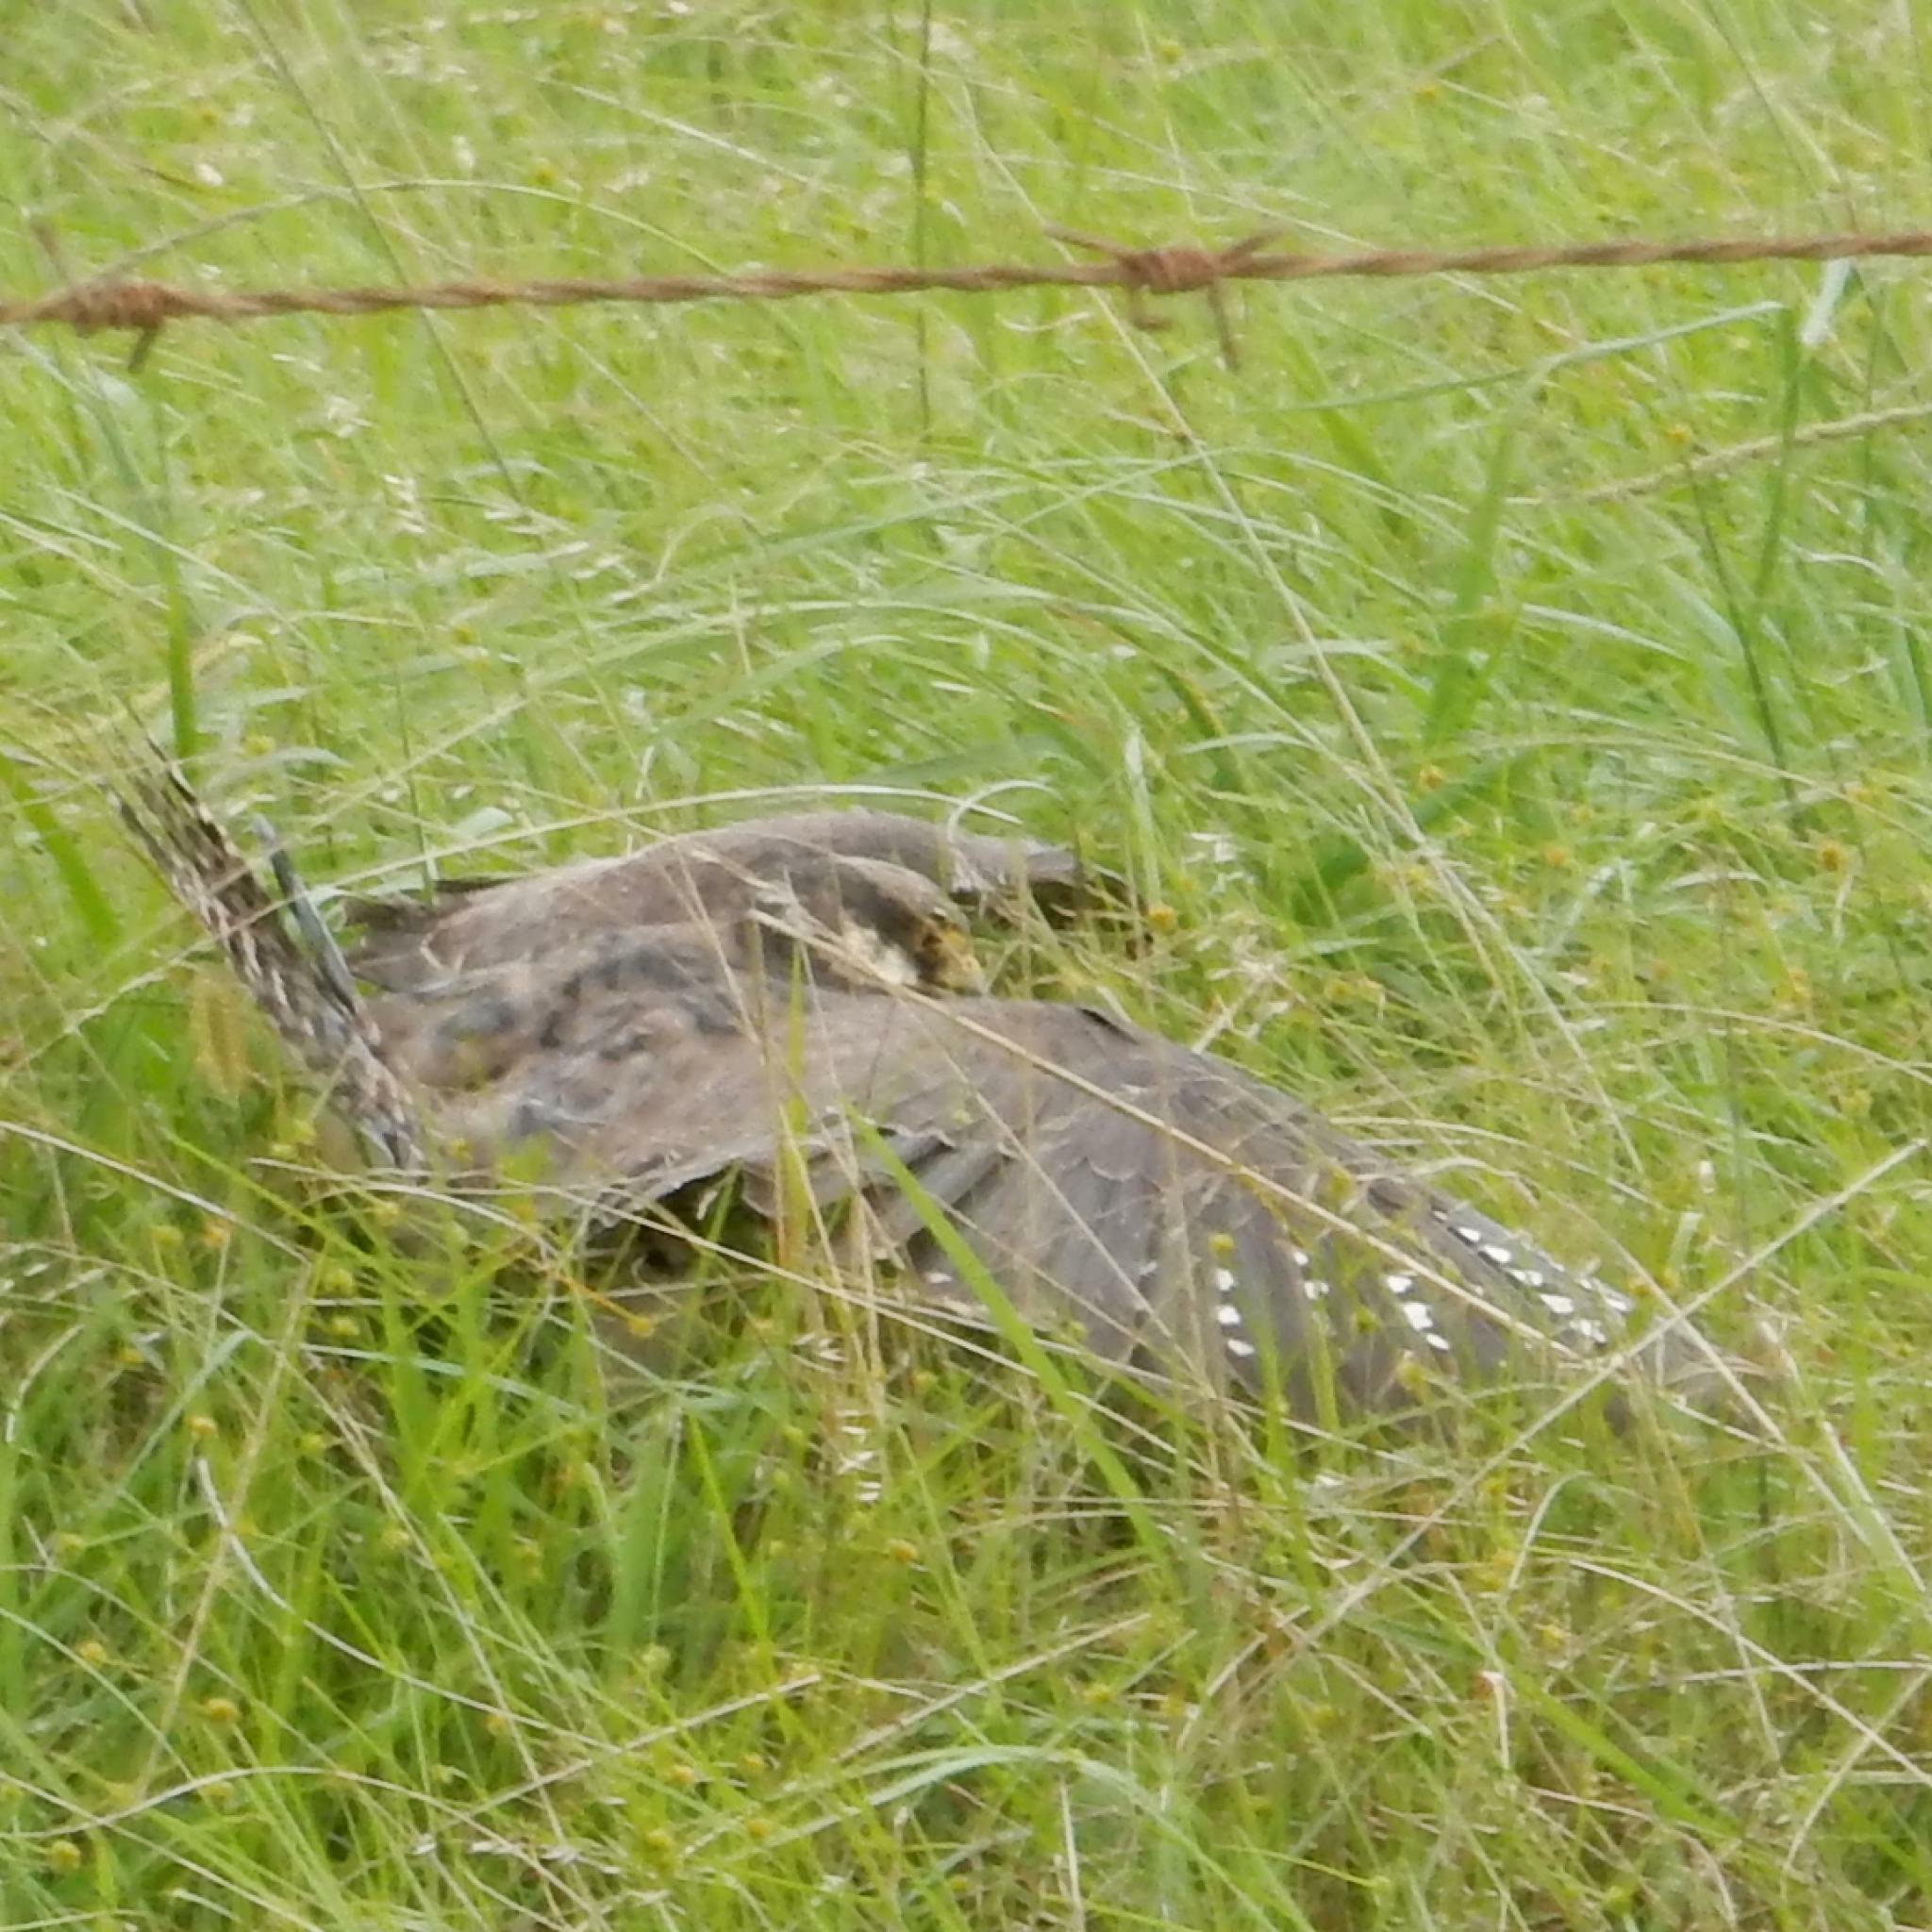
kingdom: Animalia
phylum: Chordata
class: Aves
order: Falconiformes
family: Falconidae
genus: Falco
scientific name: Falco amurensis
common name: Amur falcon
